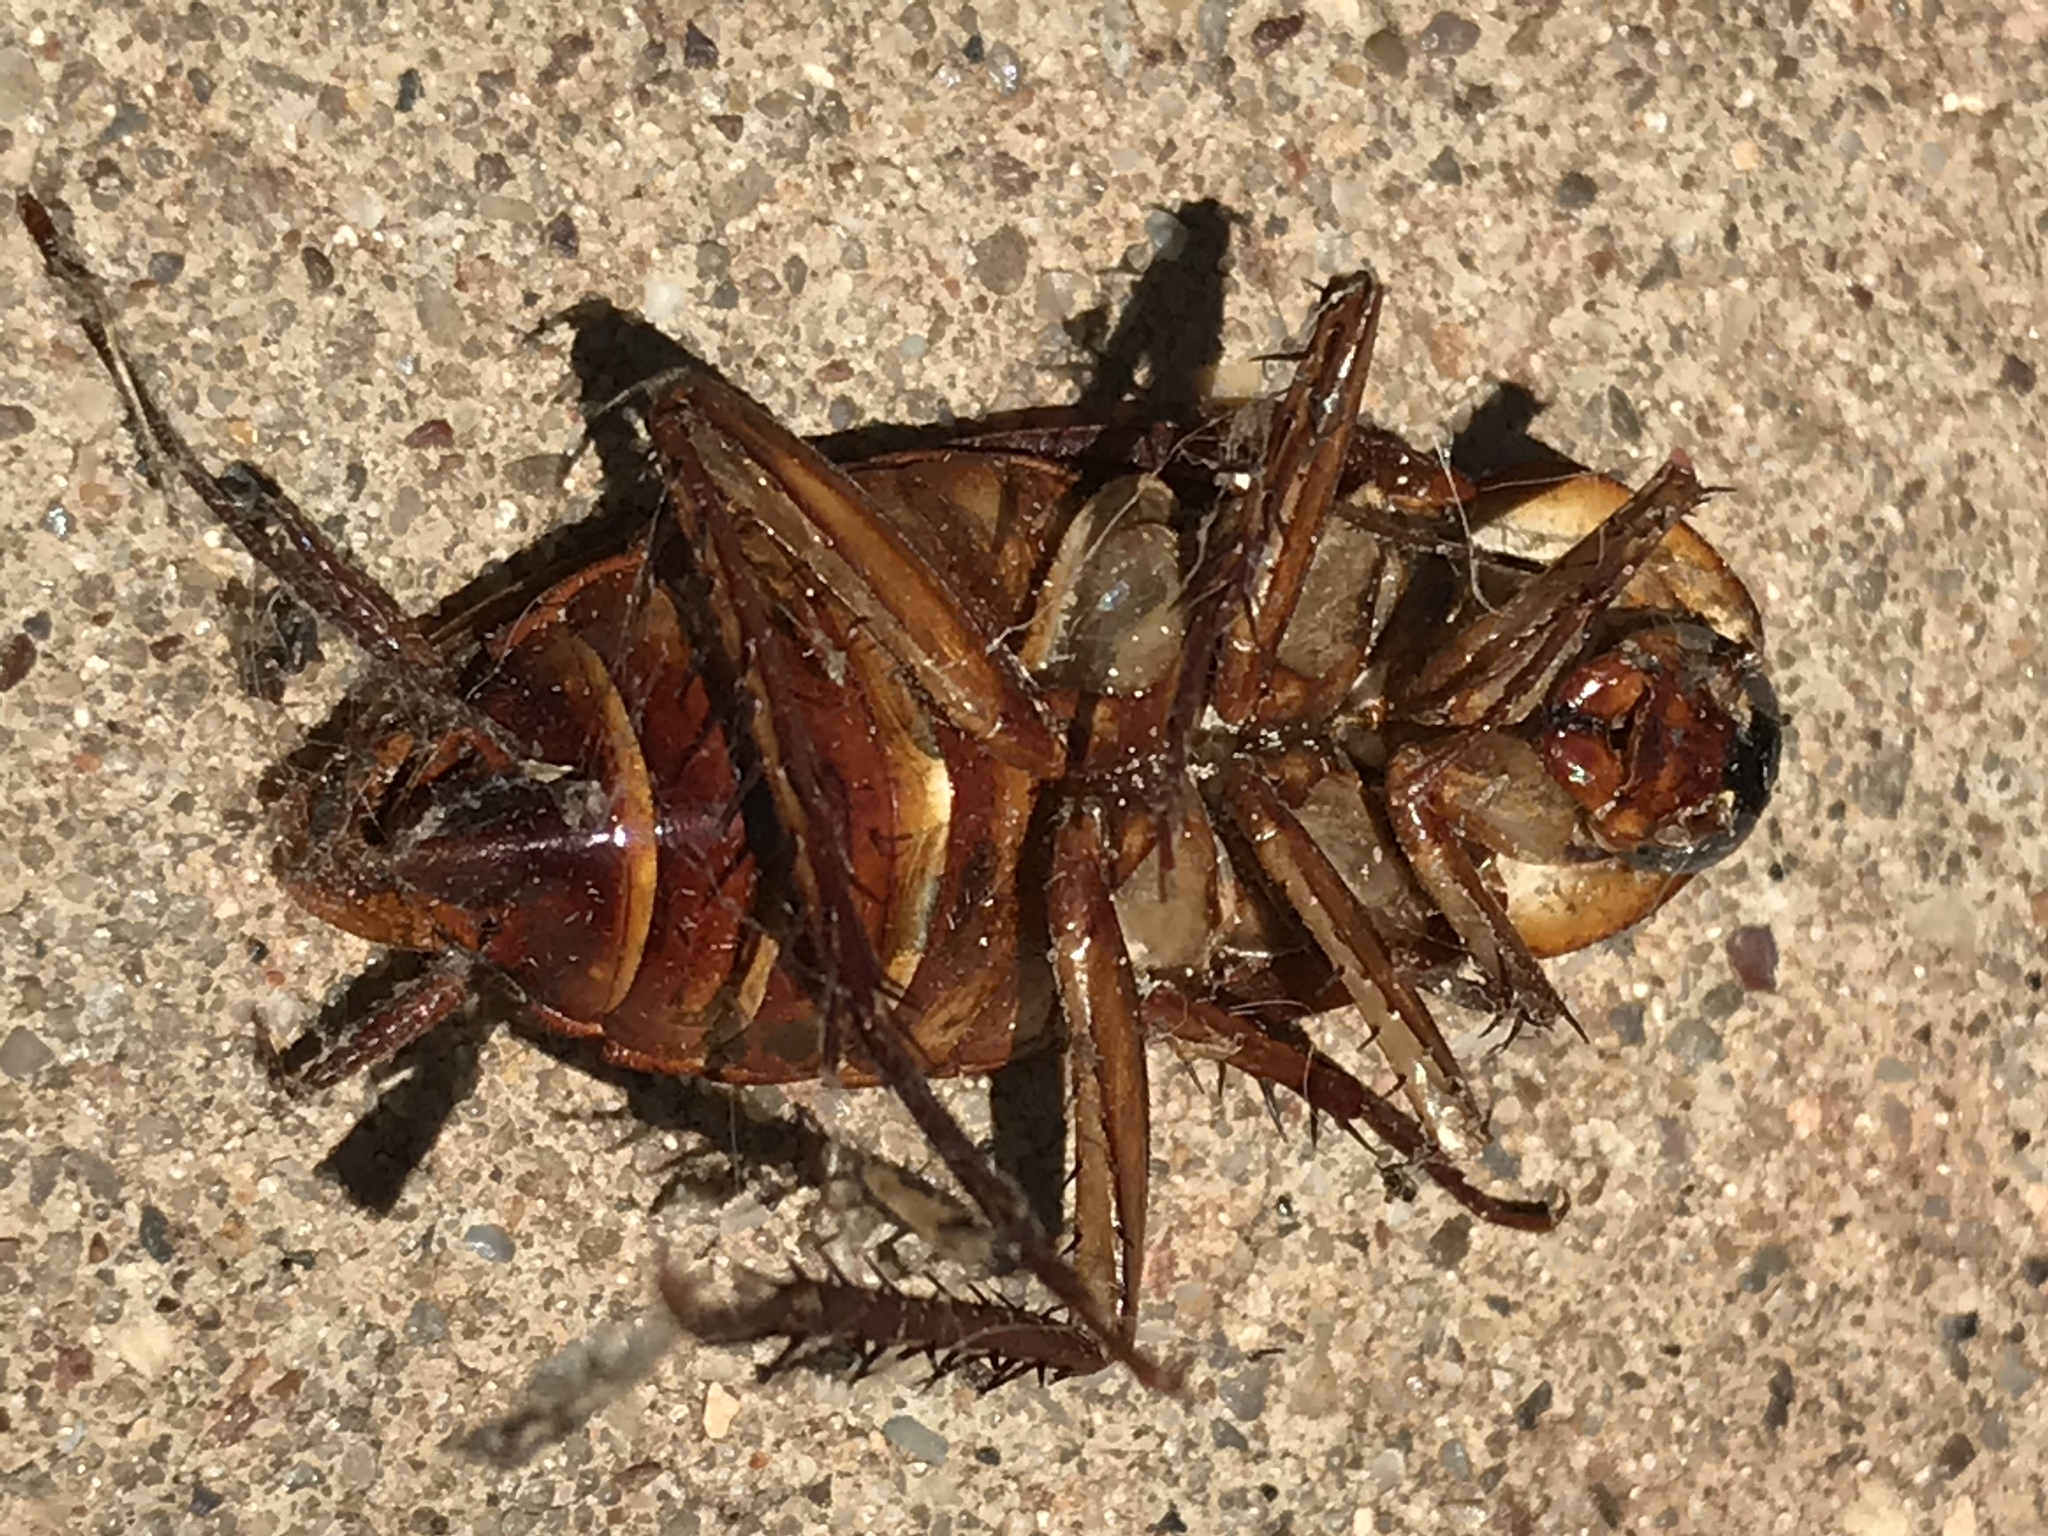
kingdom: Animalia
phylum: Arthropoda
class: Insecta
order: Blattodea
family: Blattidae
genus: Periplaneta
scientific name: Periplaneta americana
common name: American cockroach
